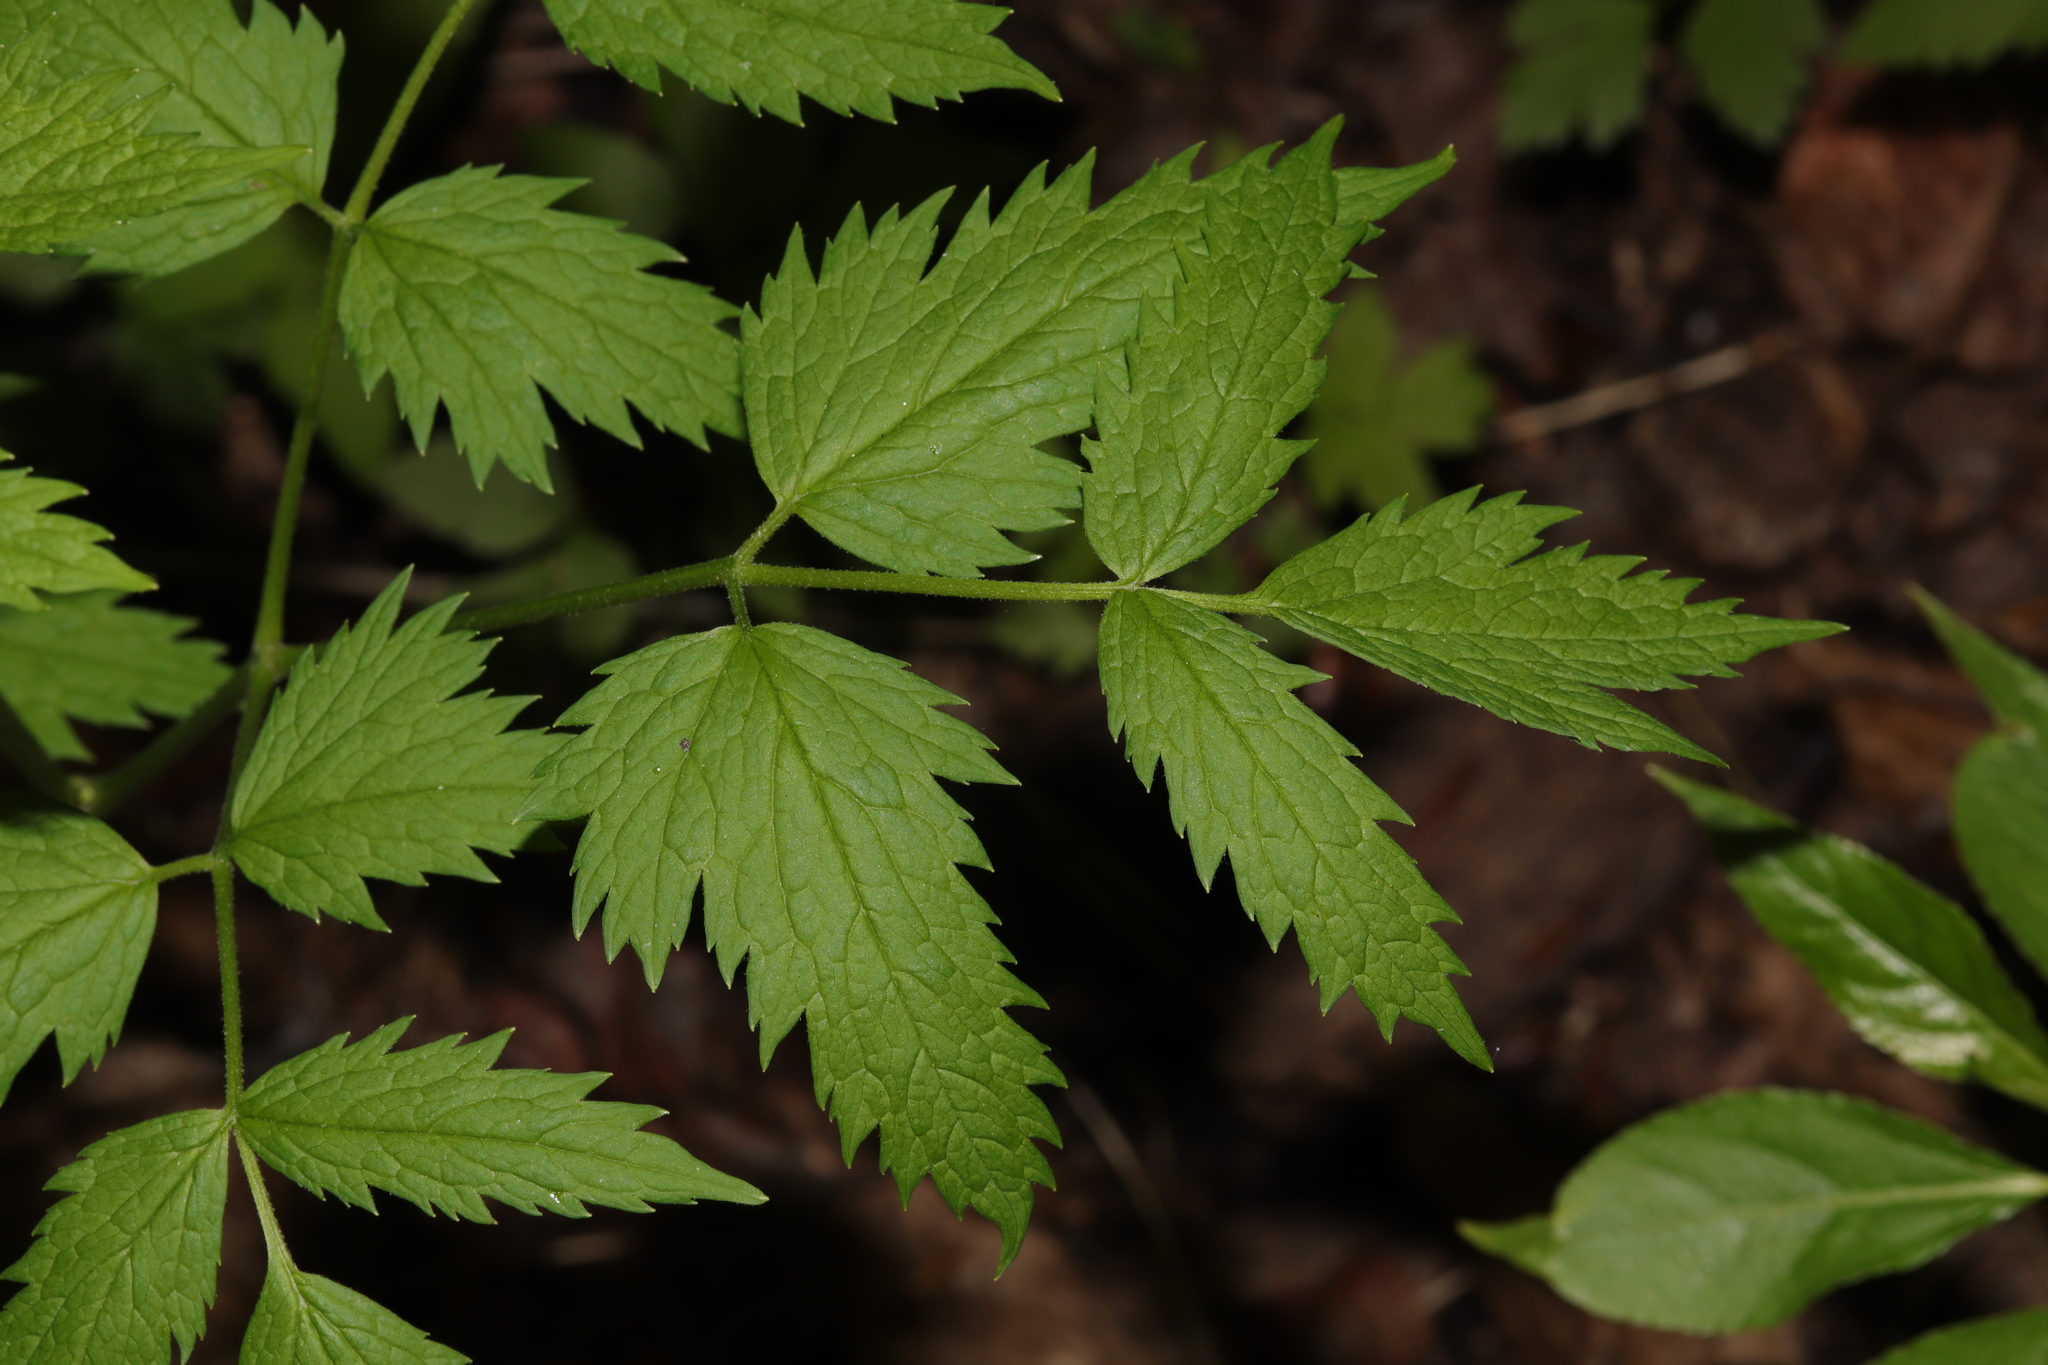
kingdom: Plantae
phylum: Tracheophyta
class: Magnoliopsida
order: Ranunculales
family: Ranunculaceae
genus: Actaea
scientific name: Actaea rubra
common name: Red baneberry
